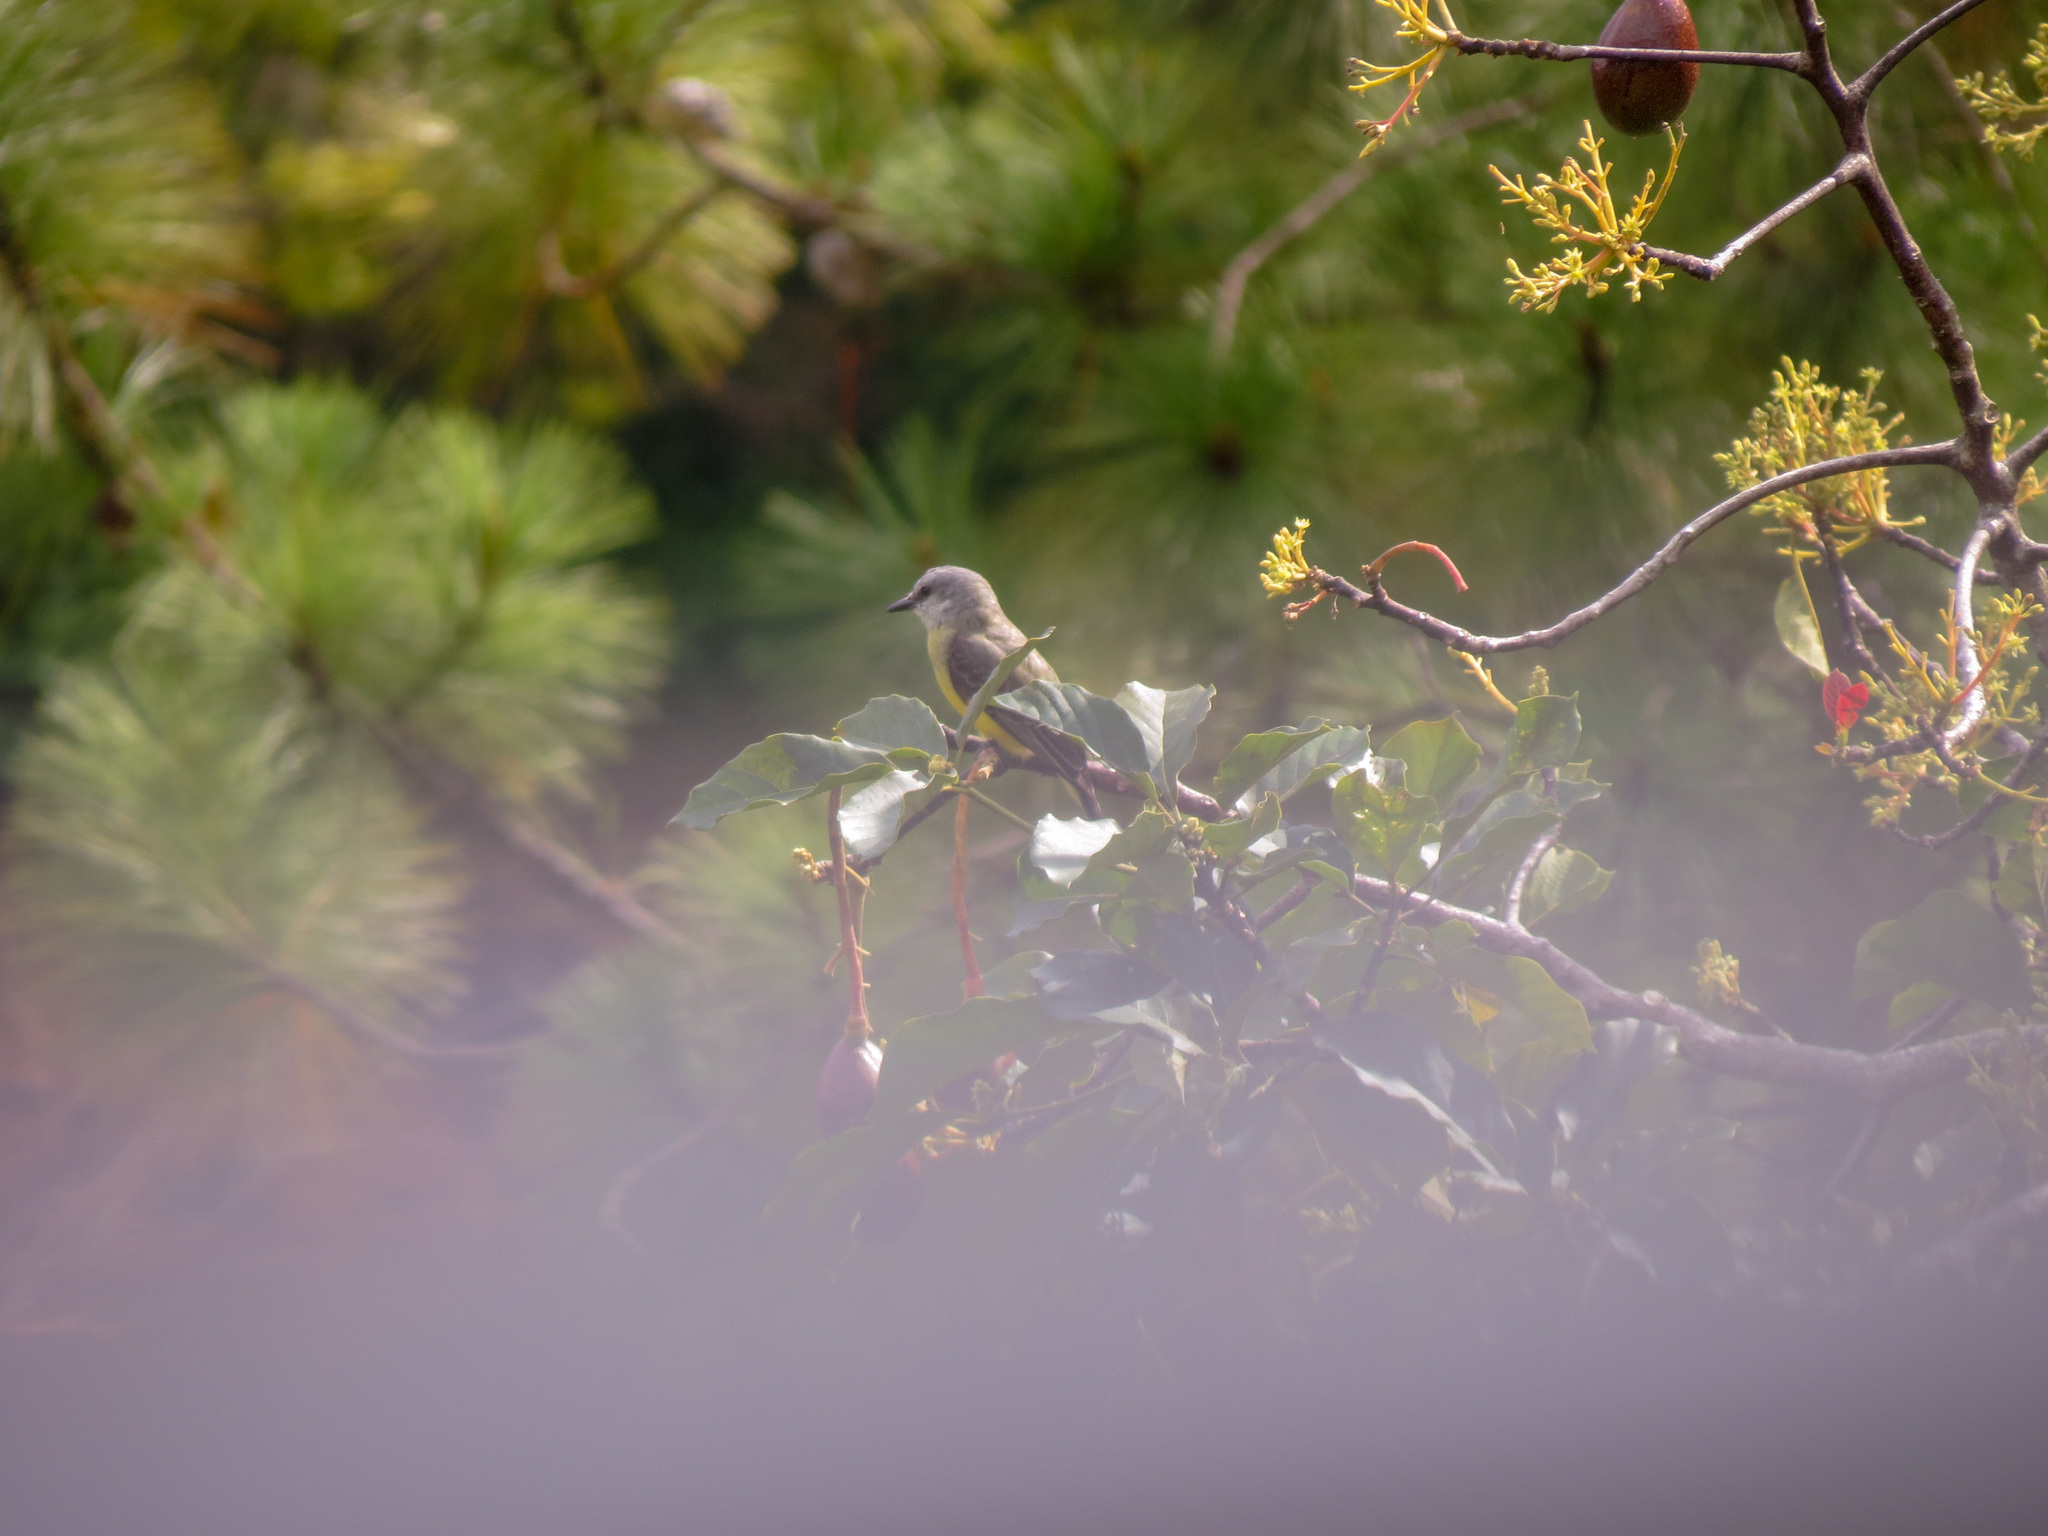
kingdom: Animalia
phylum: Chordata
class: Aves
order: Passeriformes
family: Tyrannidae
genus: Tyrannus
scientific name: Tyrannus melancholicus
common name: Tropical kingbird
